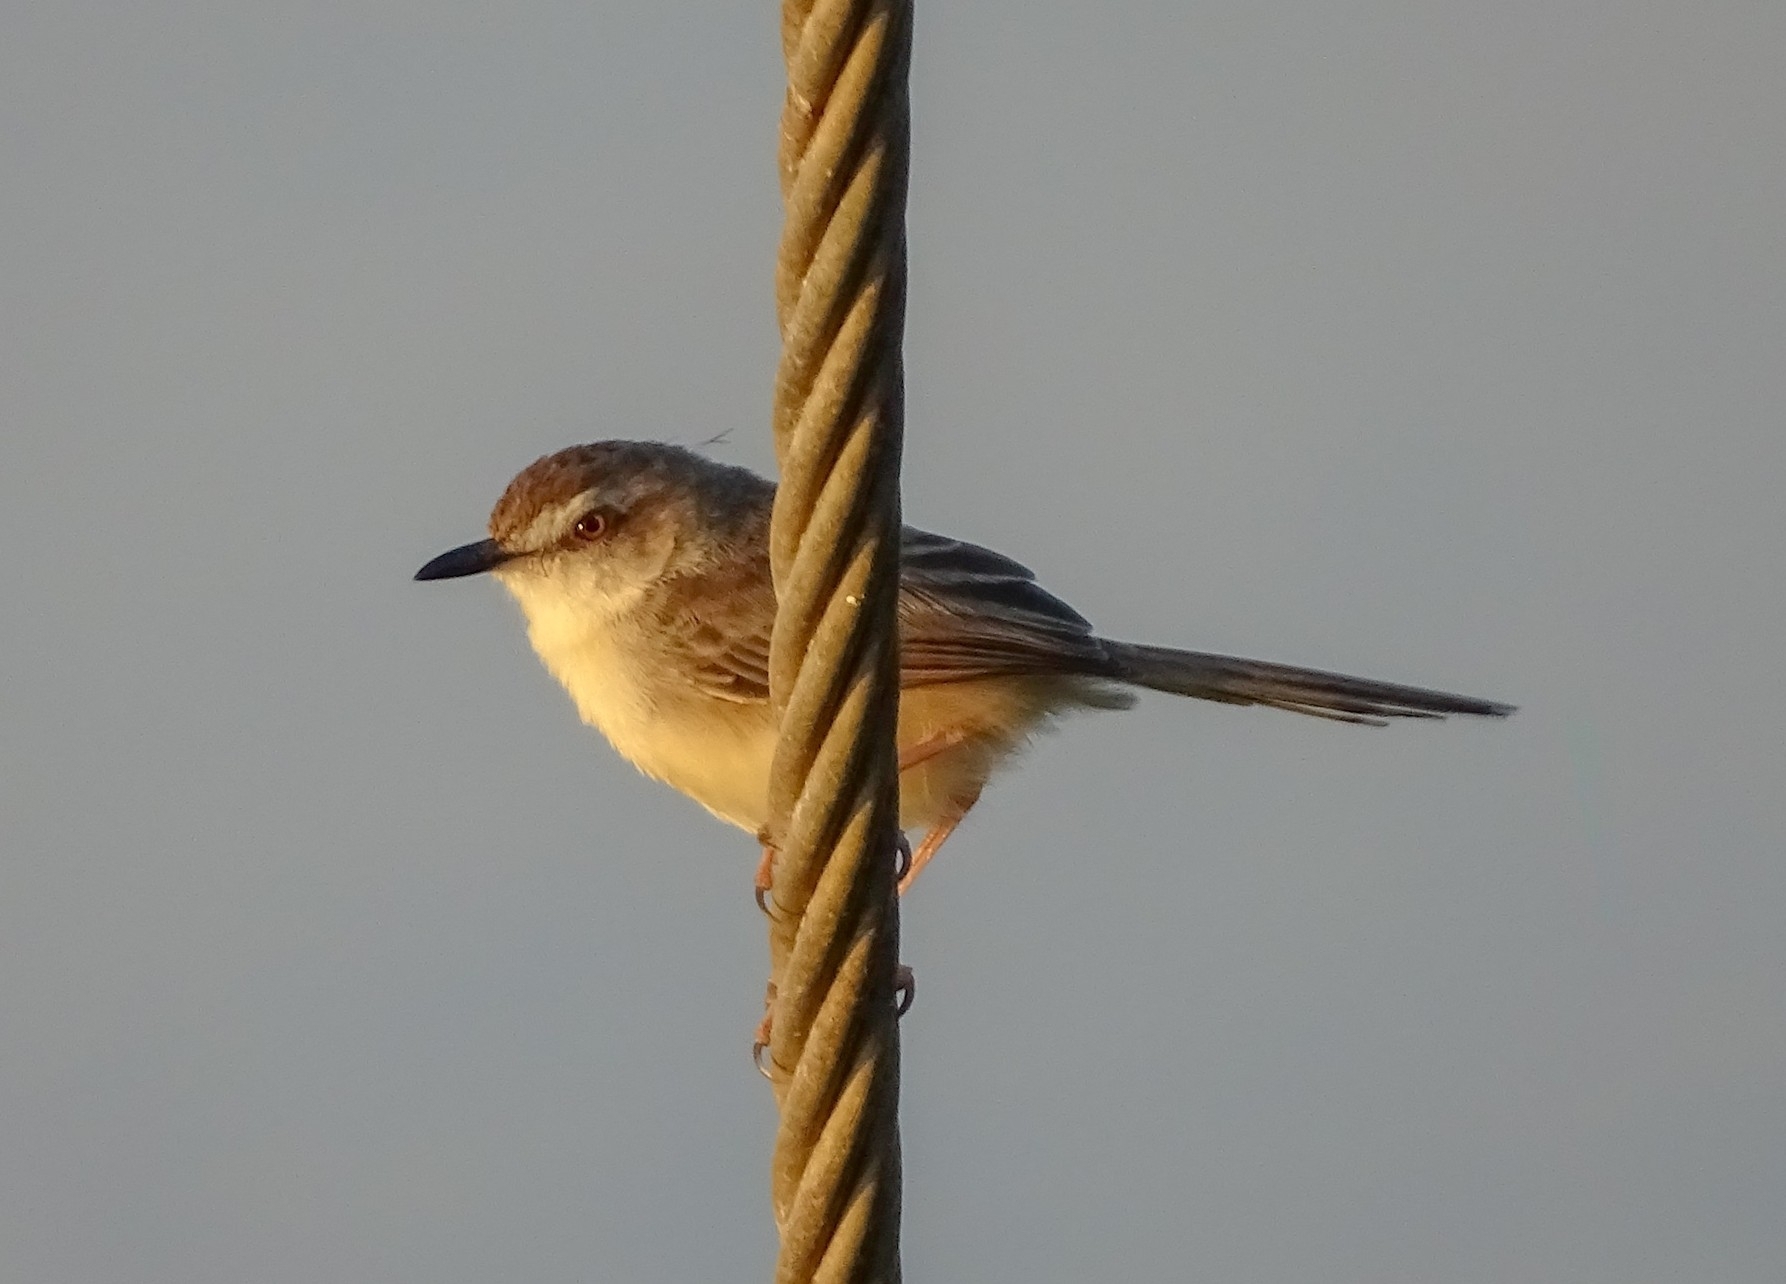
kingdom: Animalia
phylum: Chordata
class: Aves
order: Passeriformes
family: Cisticolidae
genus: Prinia
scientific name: Prinia inornata
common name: Plain prinia
